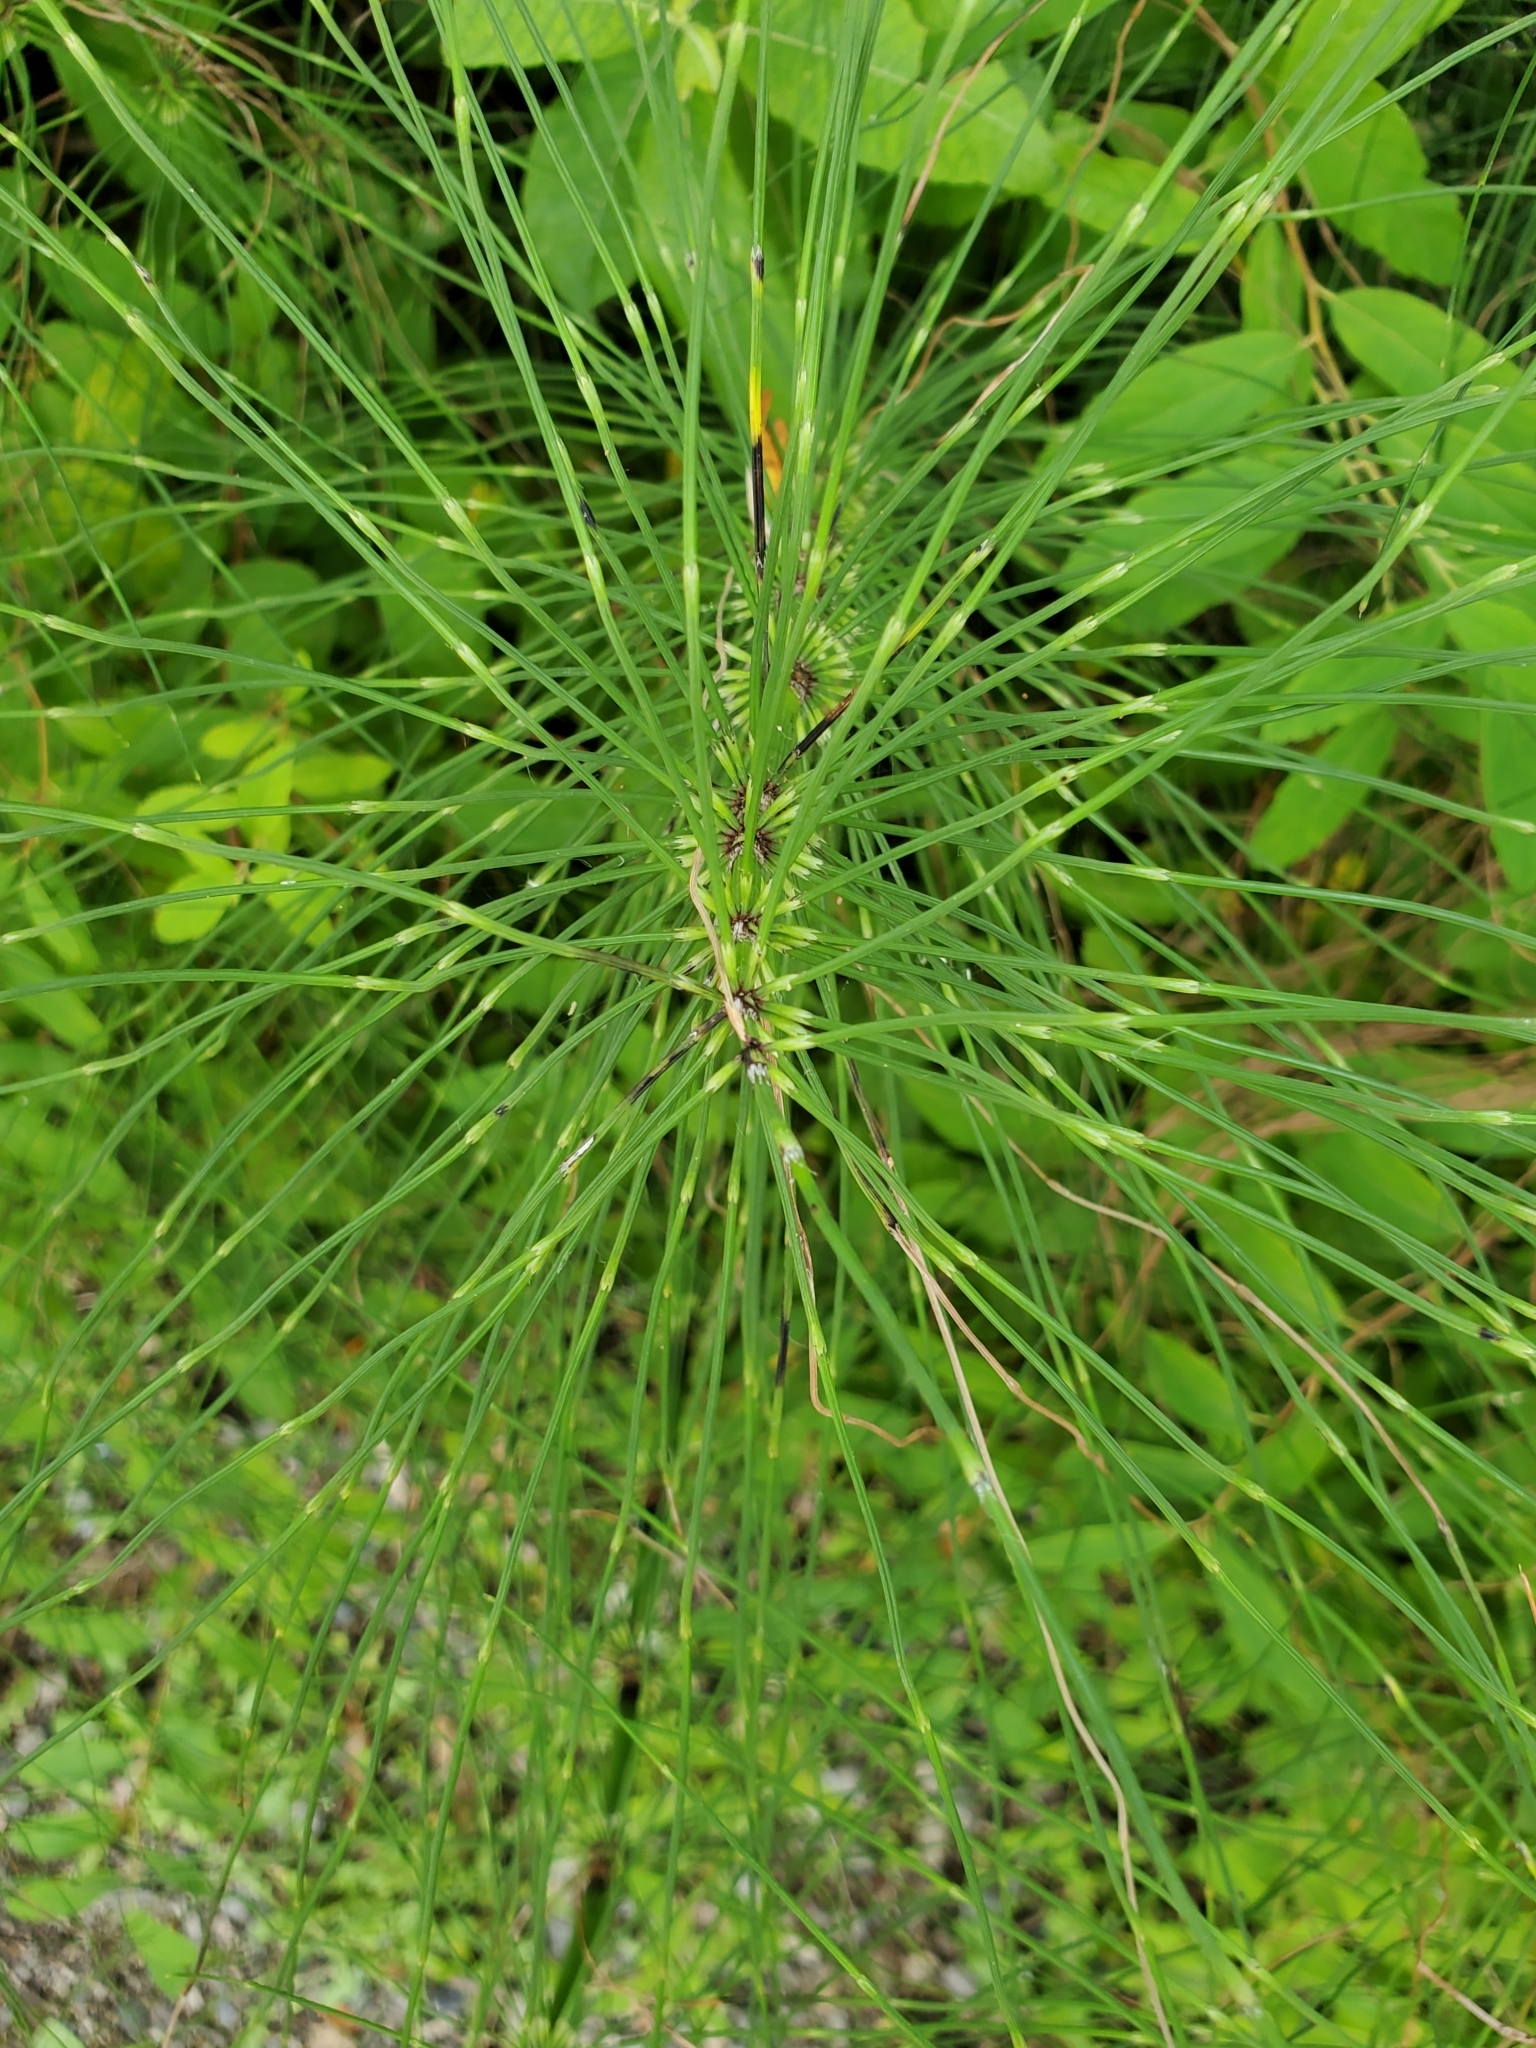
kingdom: Plantae
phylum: Tracheophyta
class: Polypodiopsida
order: Equisetales
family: Equisetaceae
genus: Equisetum
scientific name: Equisetum telmateia
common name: Great horsetail
